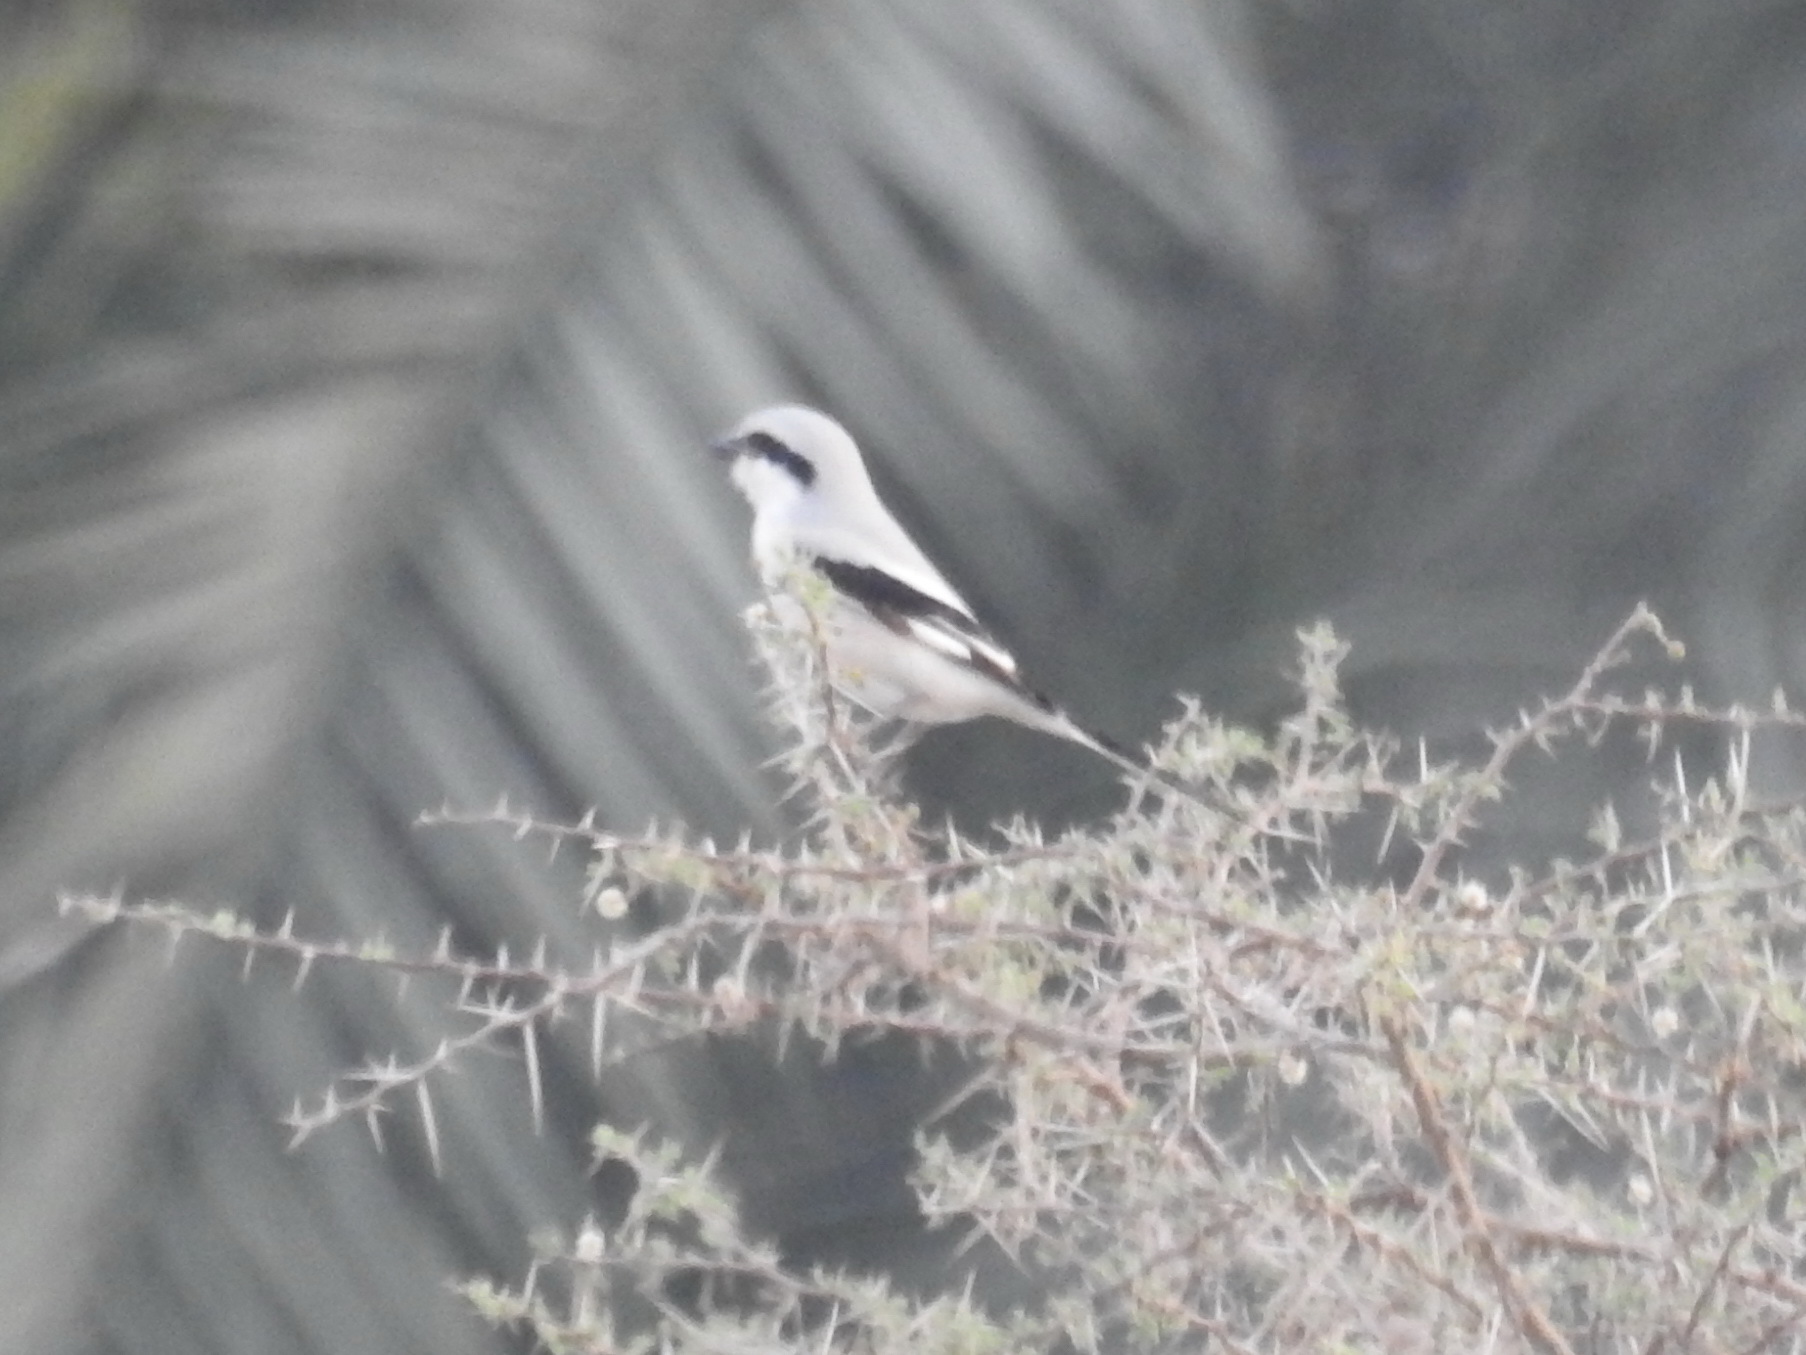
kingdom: Animalia
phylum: Chordata
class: Aves
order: Passeriformes
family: Laniidae
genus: Lanius
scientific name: Lanius excubitor
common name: Great grey shrike
